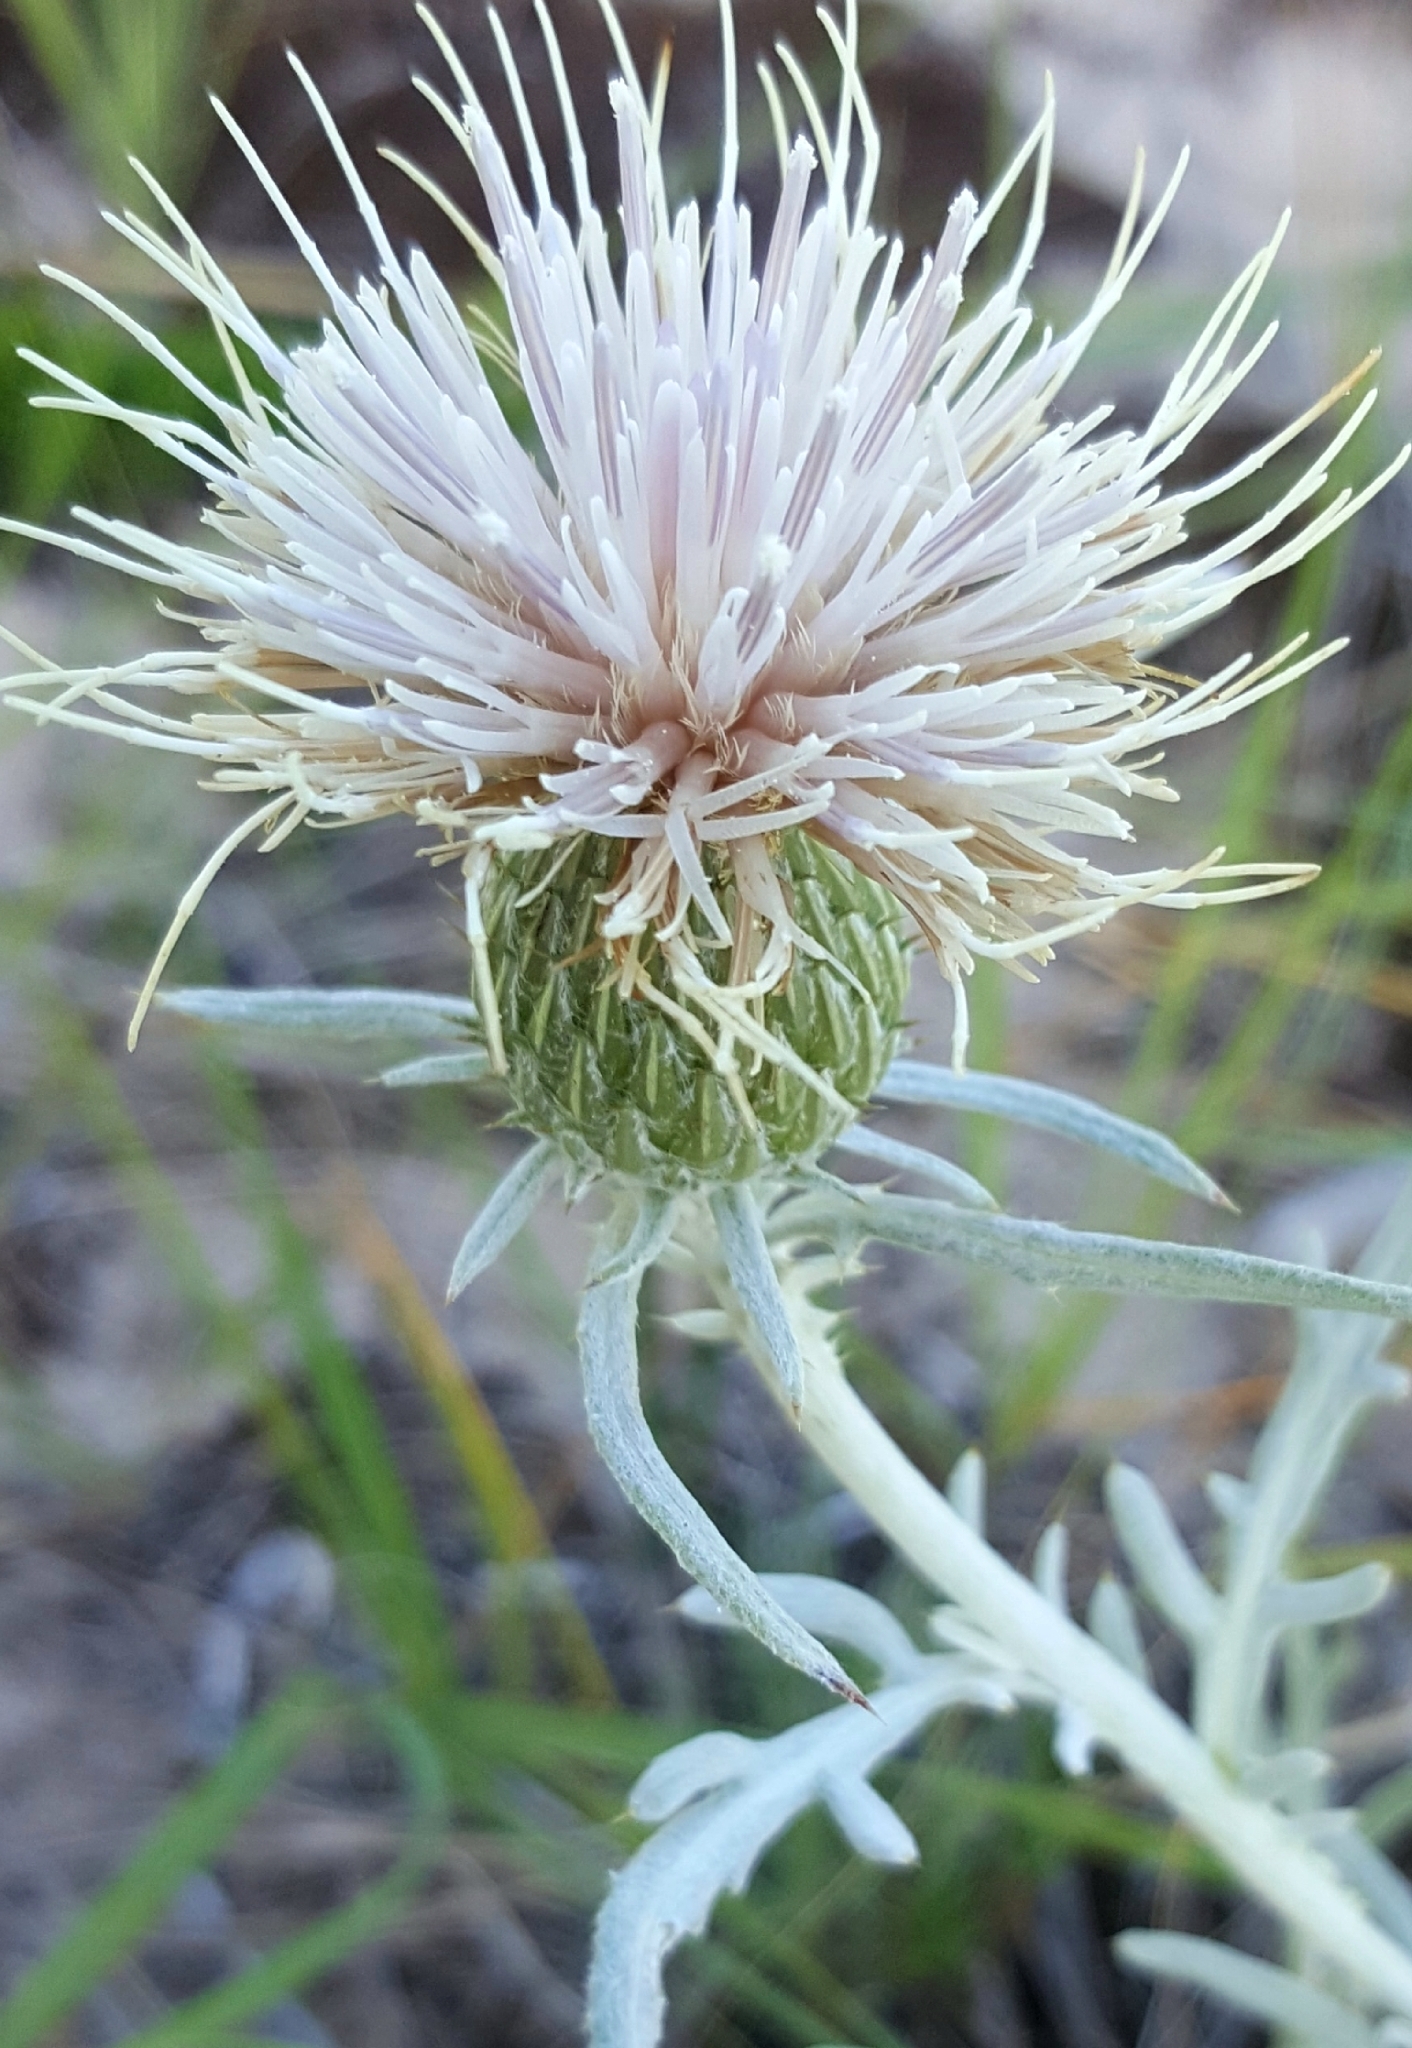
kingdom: Plantae
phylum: Tracheophyta
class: Magnoliopsida
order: Asterales
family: Asteraceae
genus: Cirsium
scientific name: Cirsium pitcheri
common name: Dune thistle
